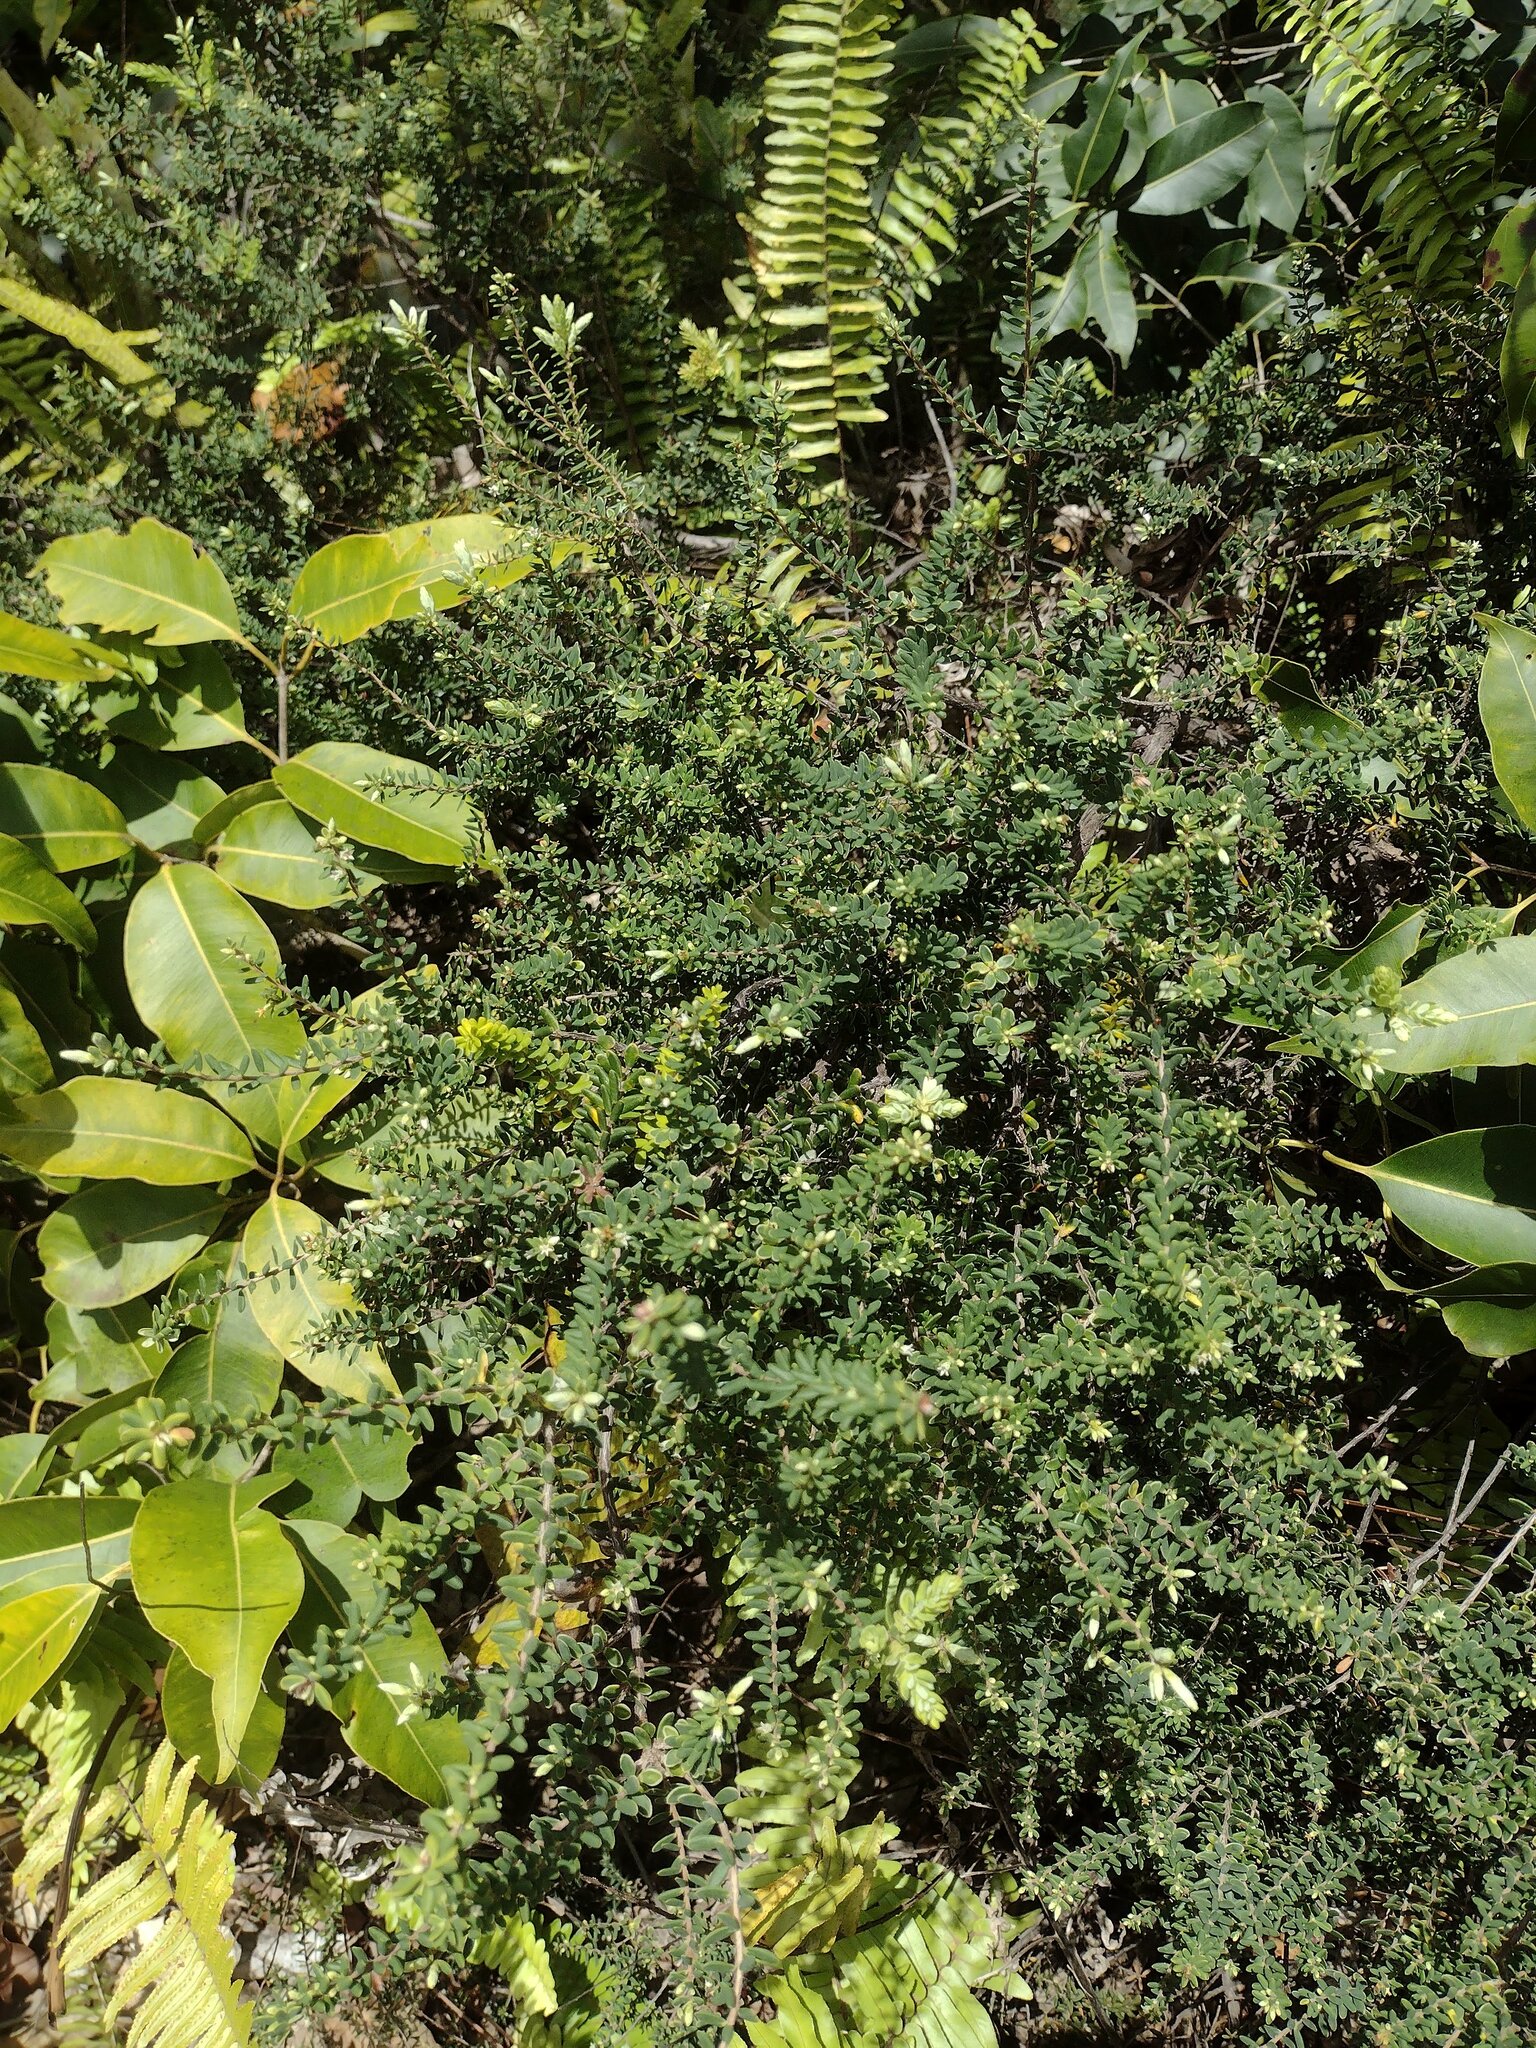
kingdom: Plantae
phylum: Tracheophyta
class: Magnoliopsida
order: Ericales
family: Ericaceae
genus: Leptecophylla
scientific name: Leptecophylla tameiameiae
